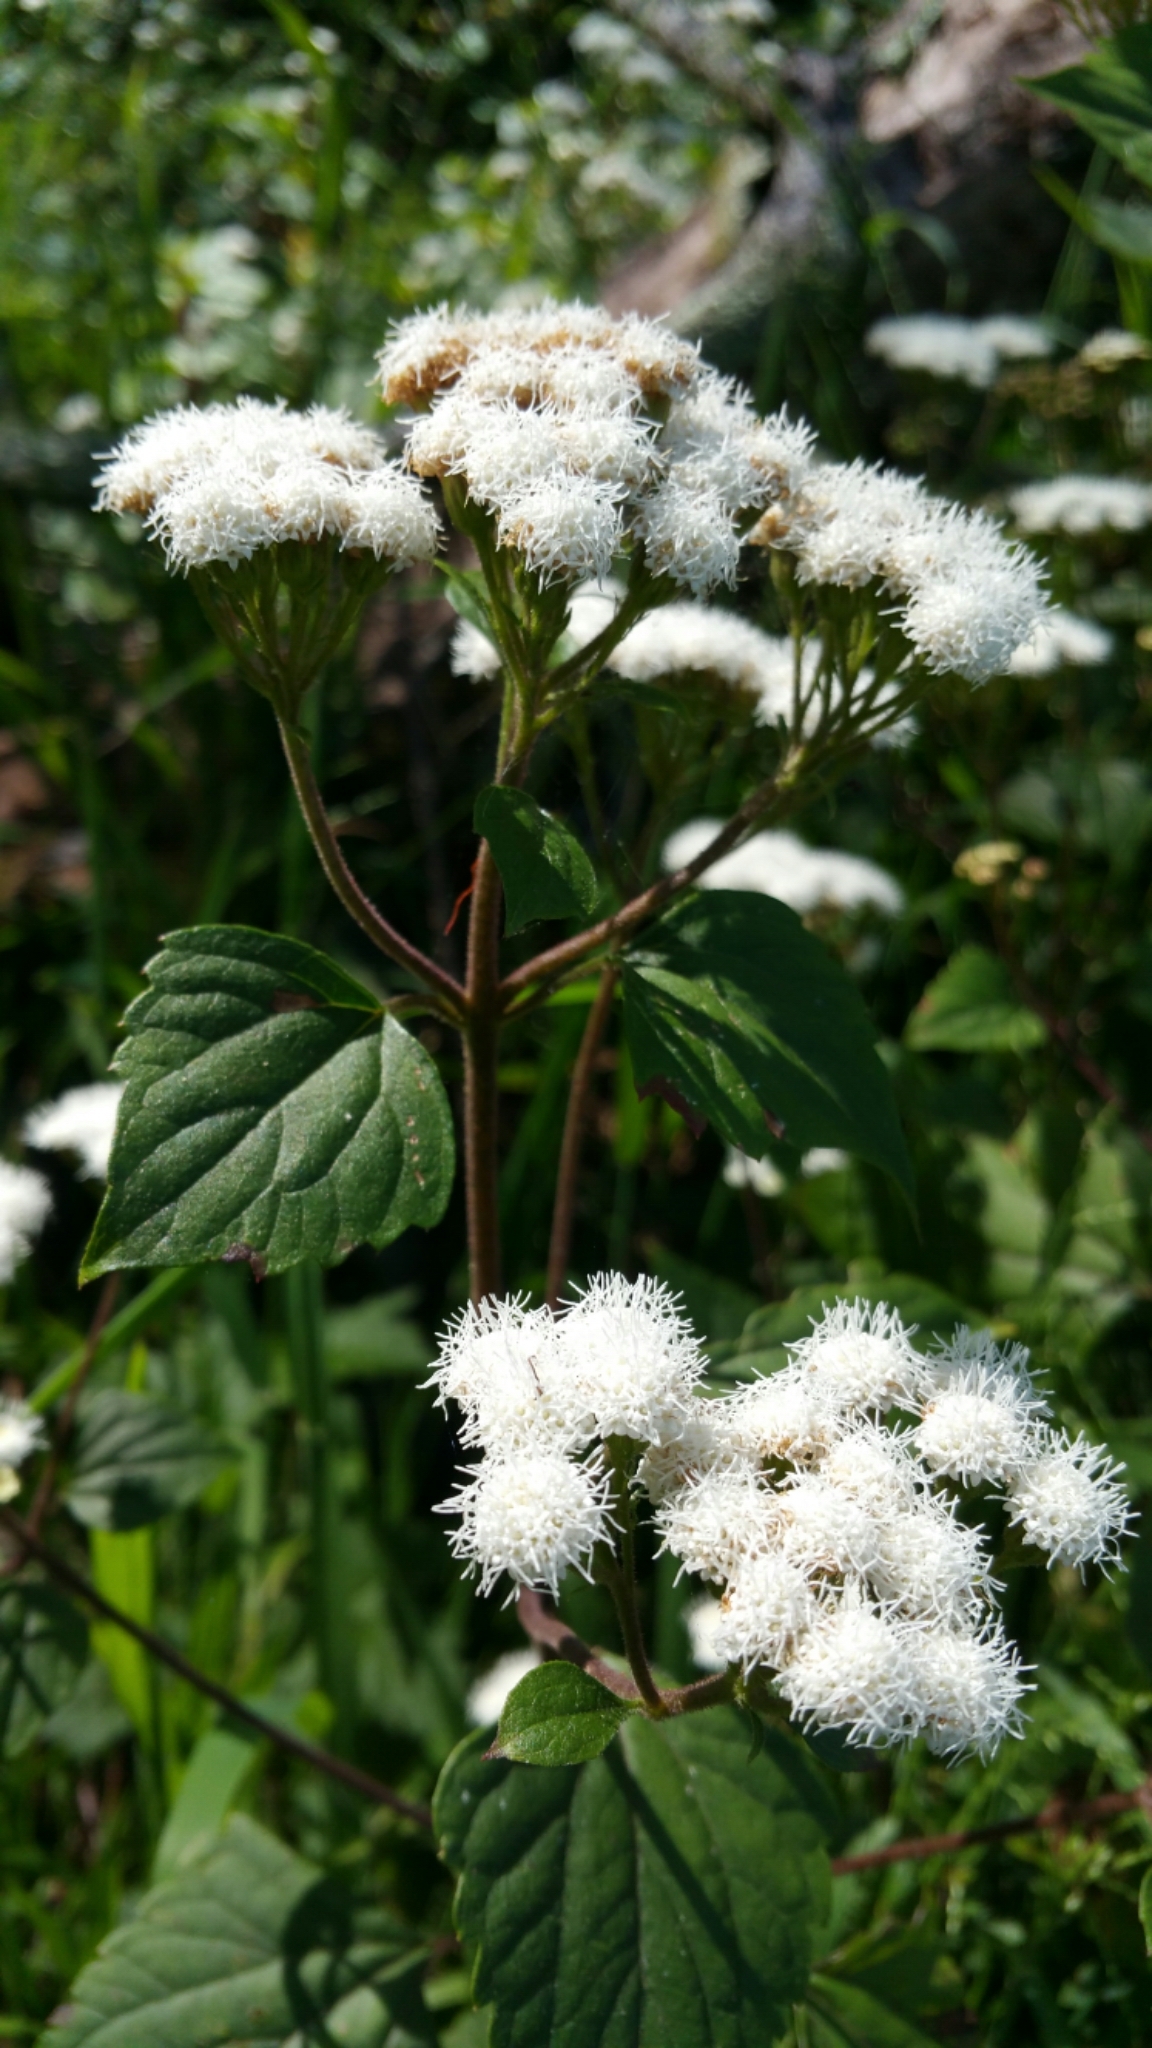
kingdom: Plantae
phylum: Tracheophyta
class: Magnoliopsida
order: Asterales
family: Asteraceae
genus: Ageratina
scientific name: Ageratina adenophora
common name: Sticky snakeroot
